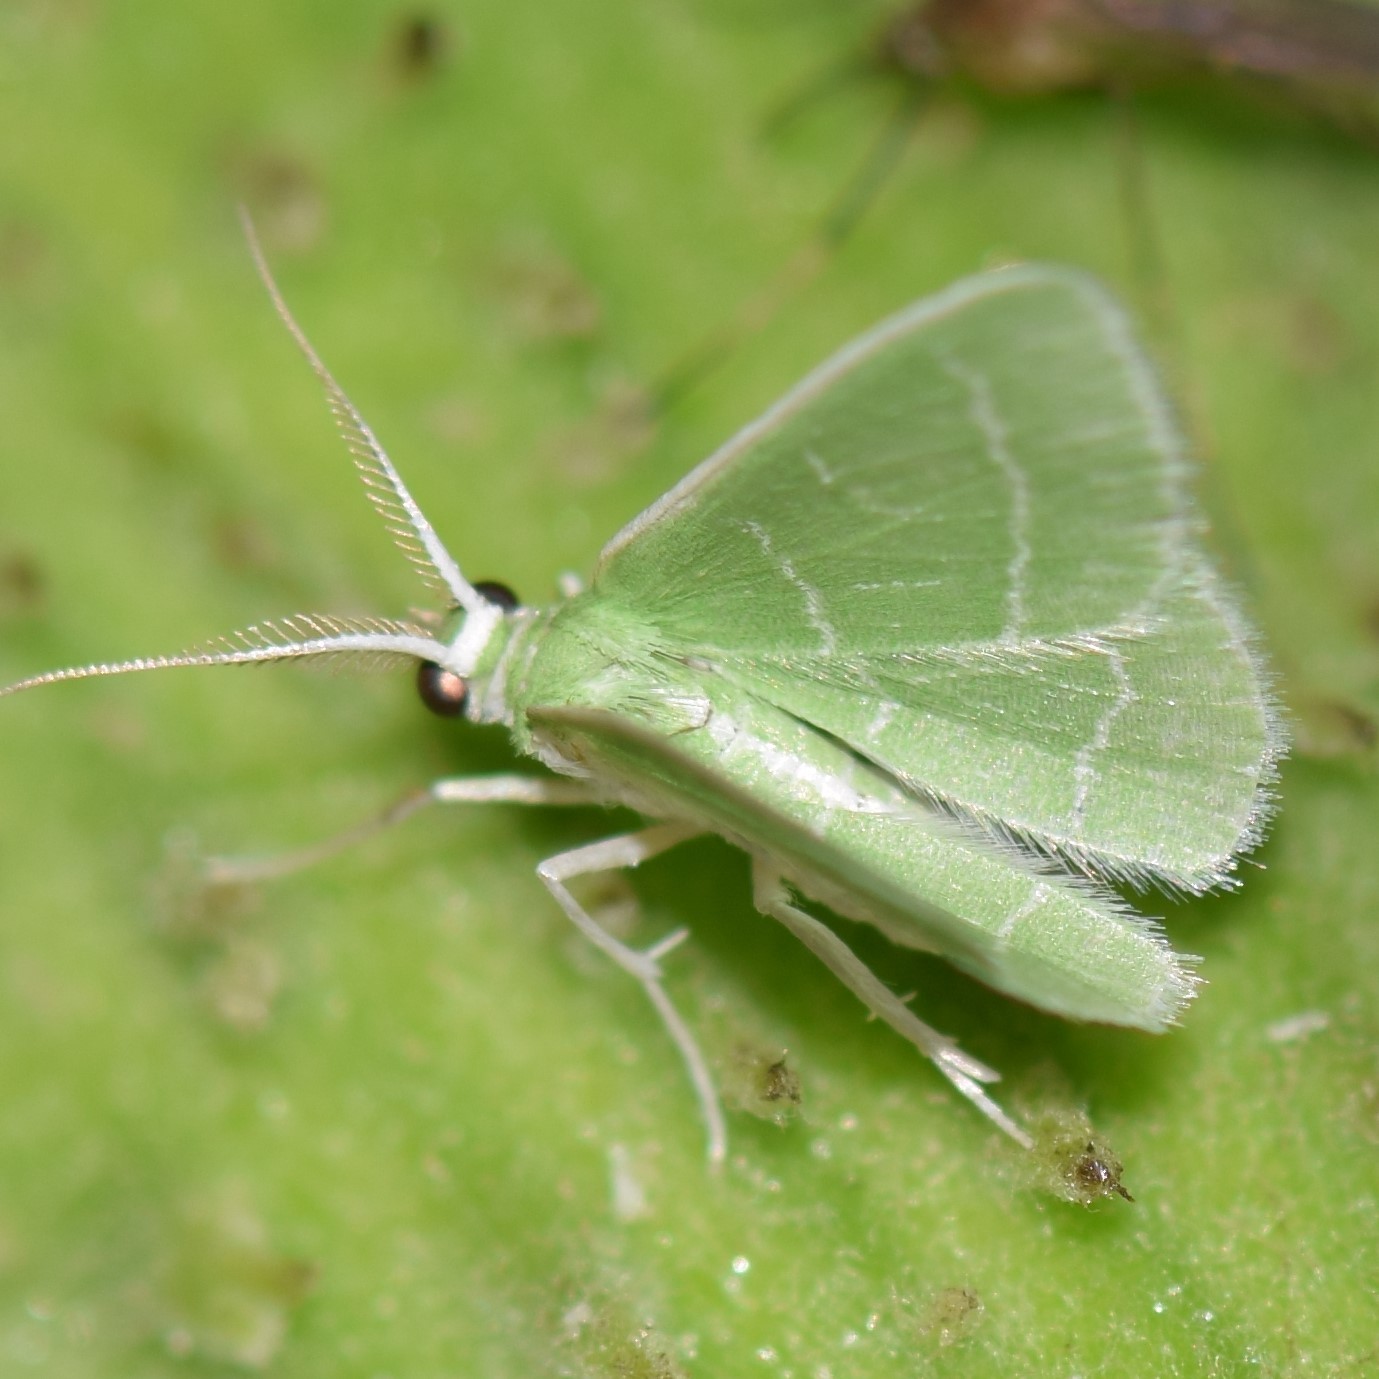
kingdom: Animalia
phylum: Arthropoda
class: Insecta
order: Lepidoptera
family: Geometridae
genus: Synchlora
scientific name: Synchlora aerata
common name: Wavy-lined emerald
